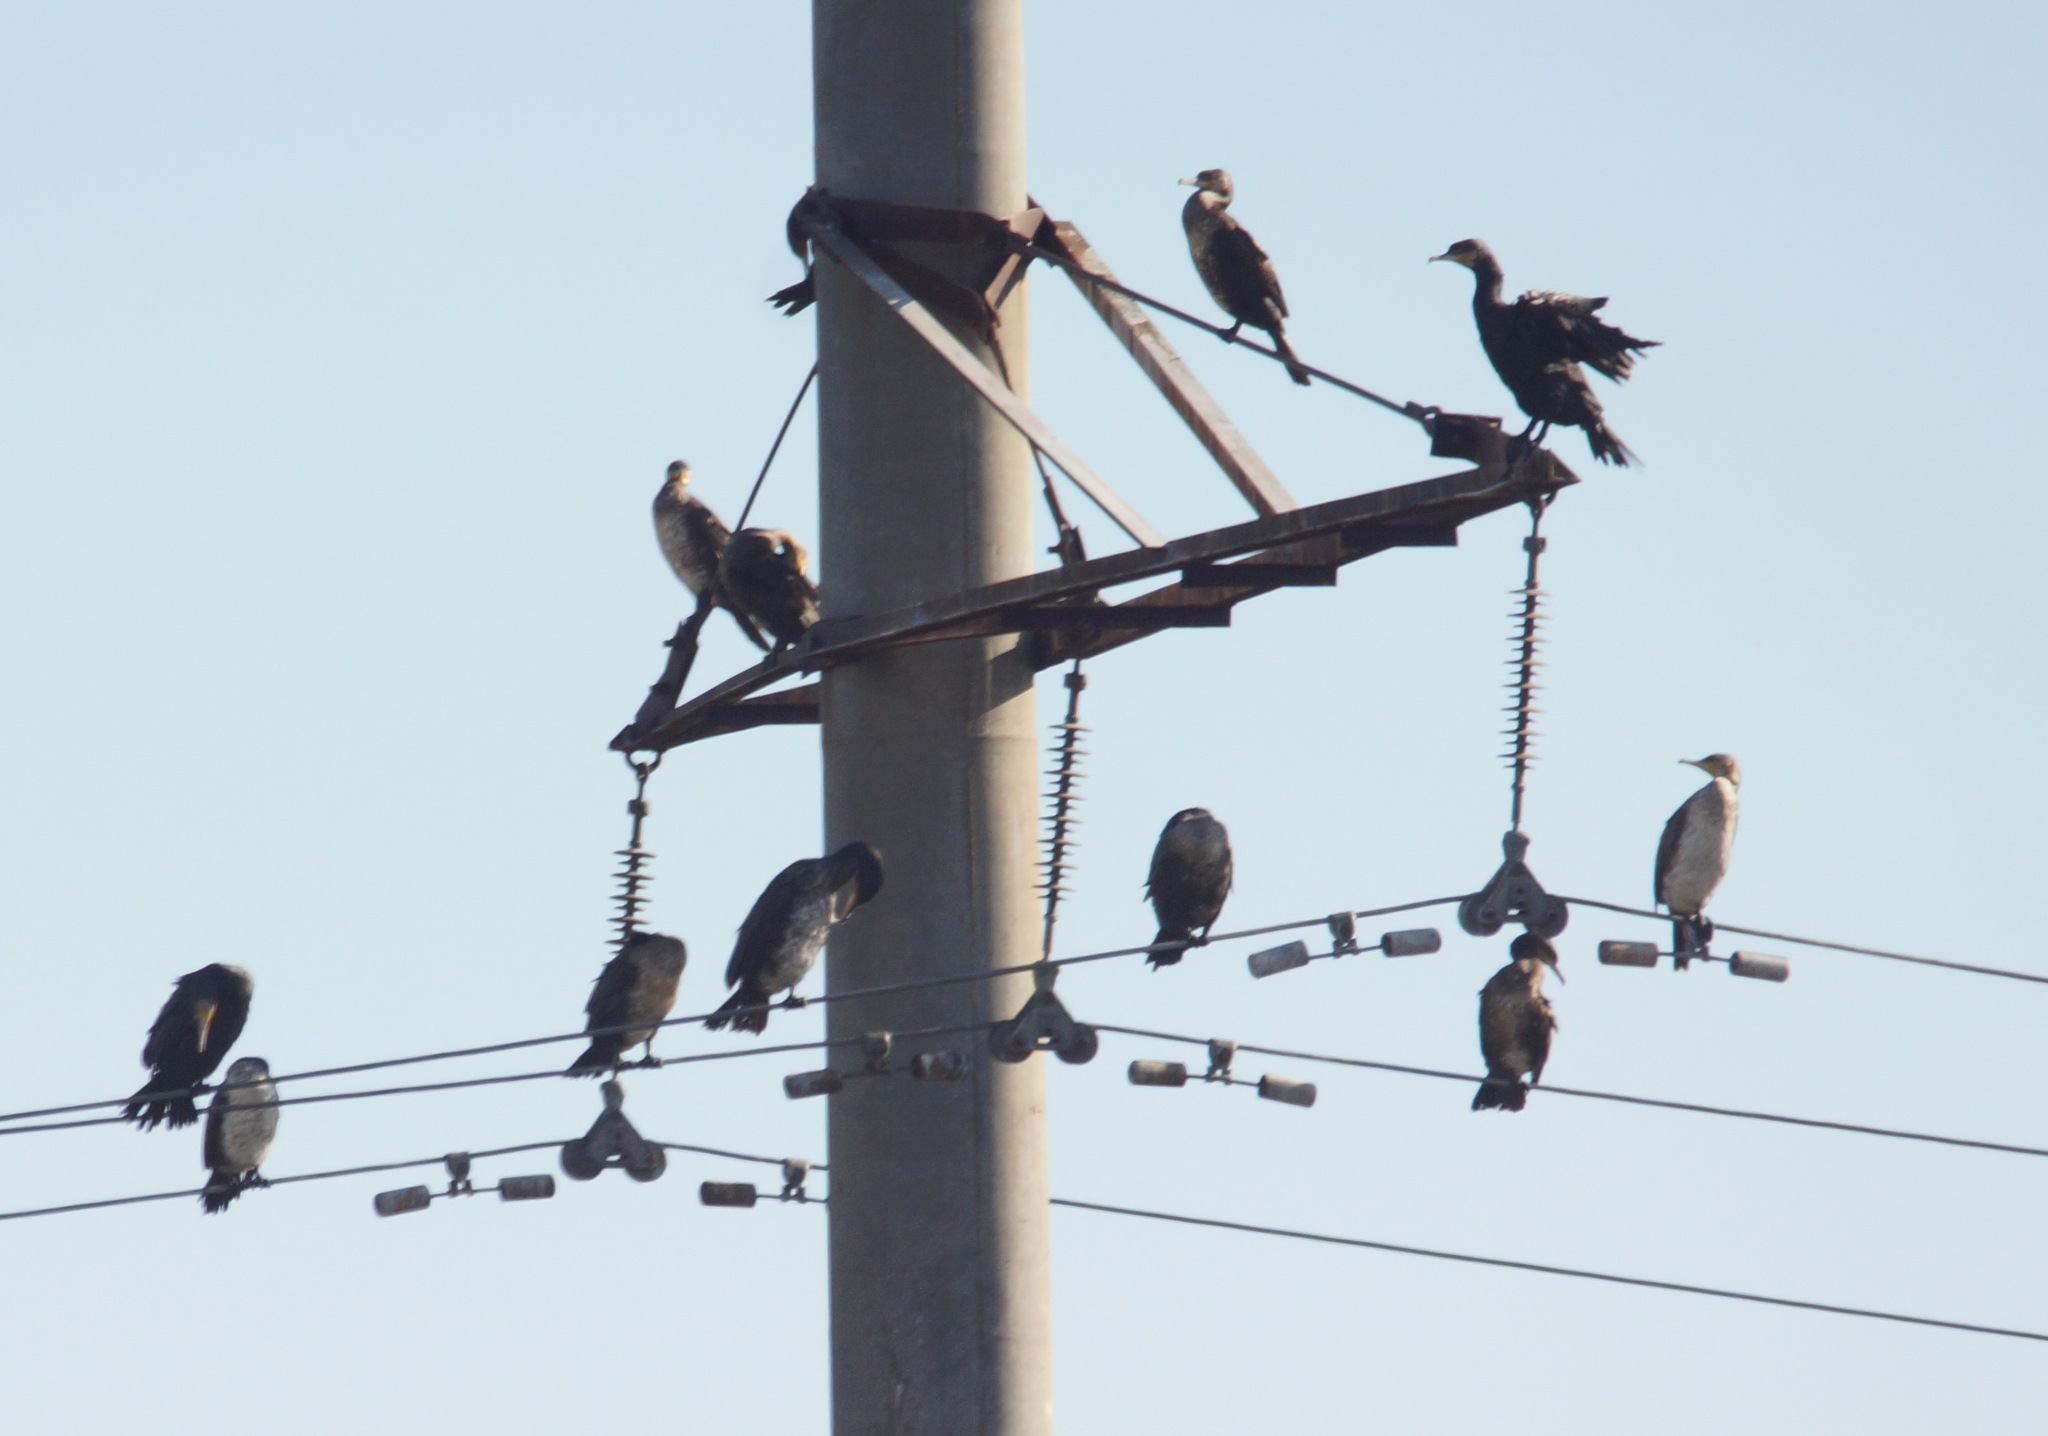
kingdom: Animalia
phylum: Chordata
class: Aves
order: Suliformes
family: Phalacrocoracidae
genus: Phalacrocorax
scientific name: Phalacrocorax carbo
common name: Great cormorant
